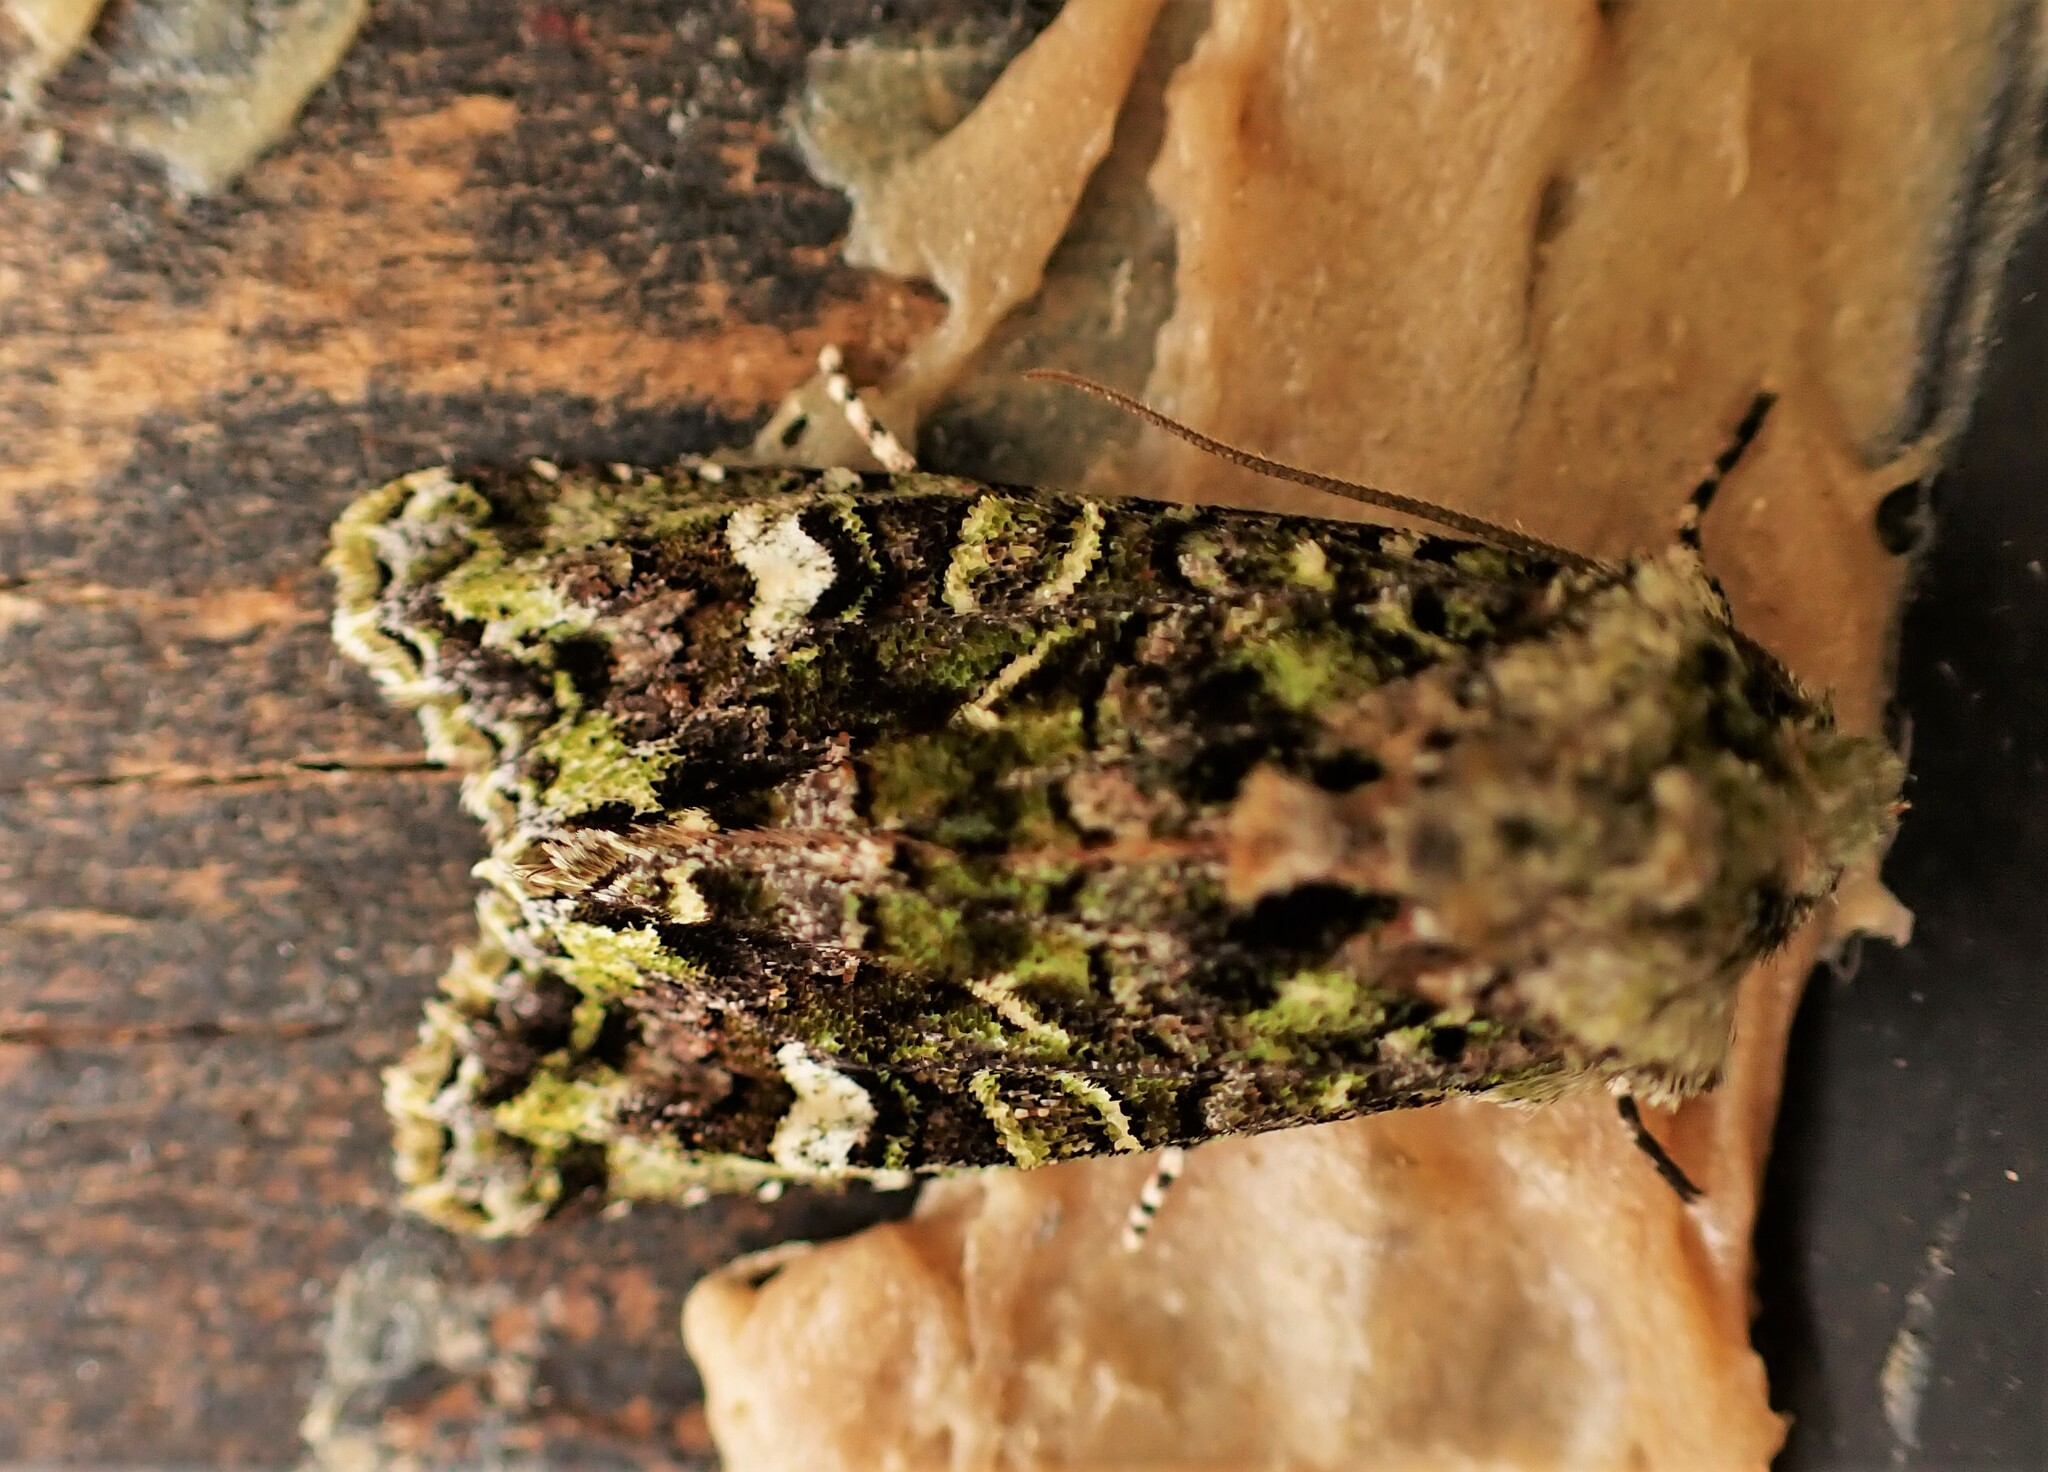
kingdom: Animalia
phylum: Arthropoda
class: Insecta
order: Lepidoptera
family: Noctuidae
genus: Ichneutica
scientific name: Ichneutica
